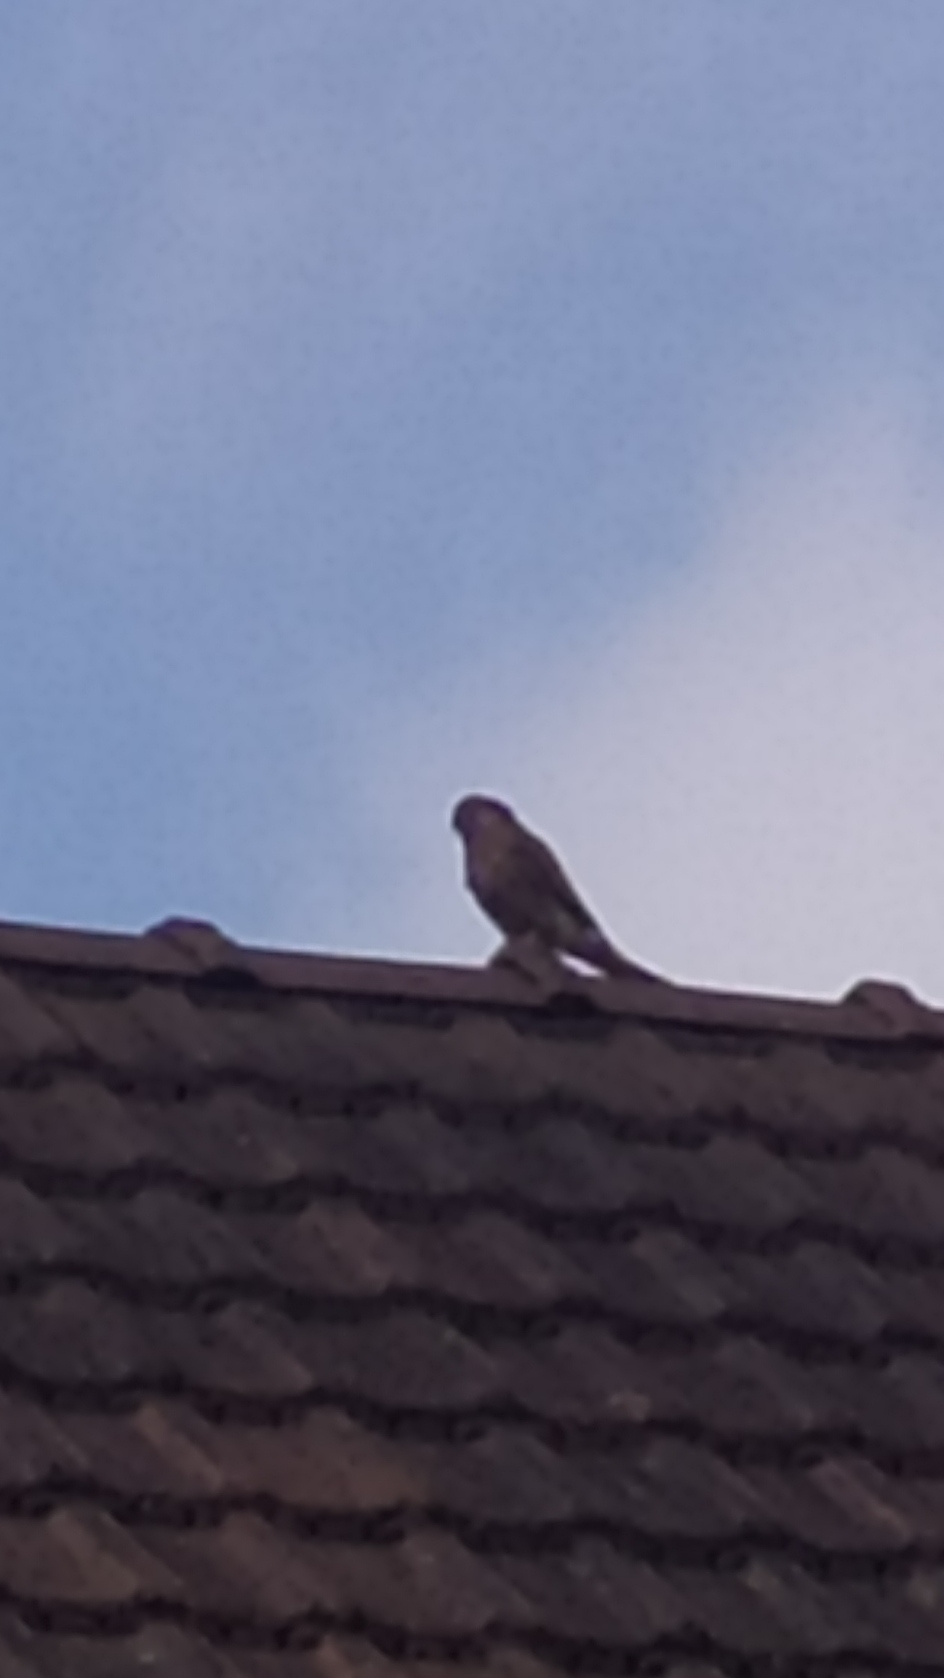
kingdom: Animalia
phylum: Chordata
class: Aves
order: Falconiformes
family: Falconidae
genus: Falco
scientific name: Falco tinnunculus
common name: Common kestrel
